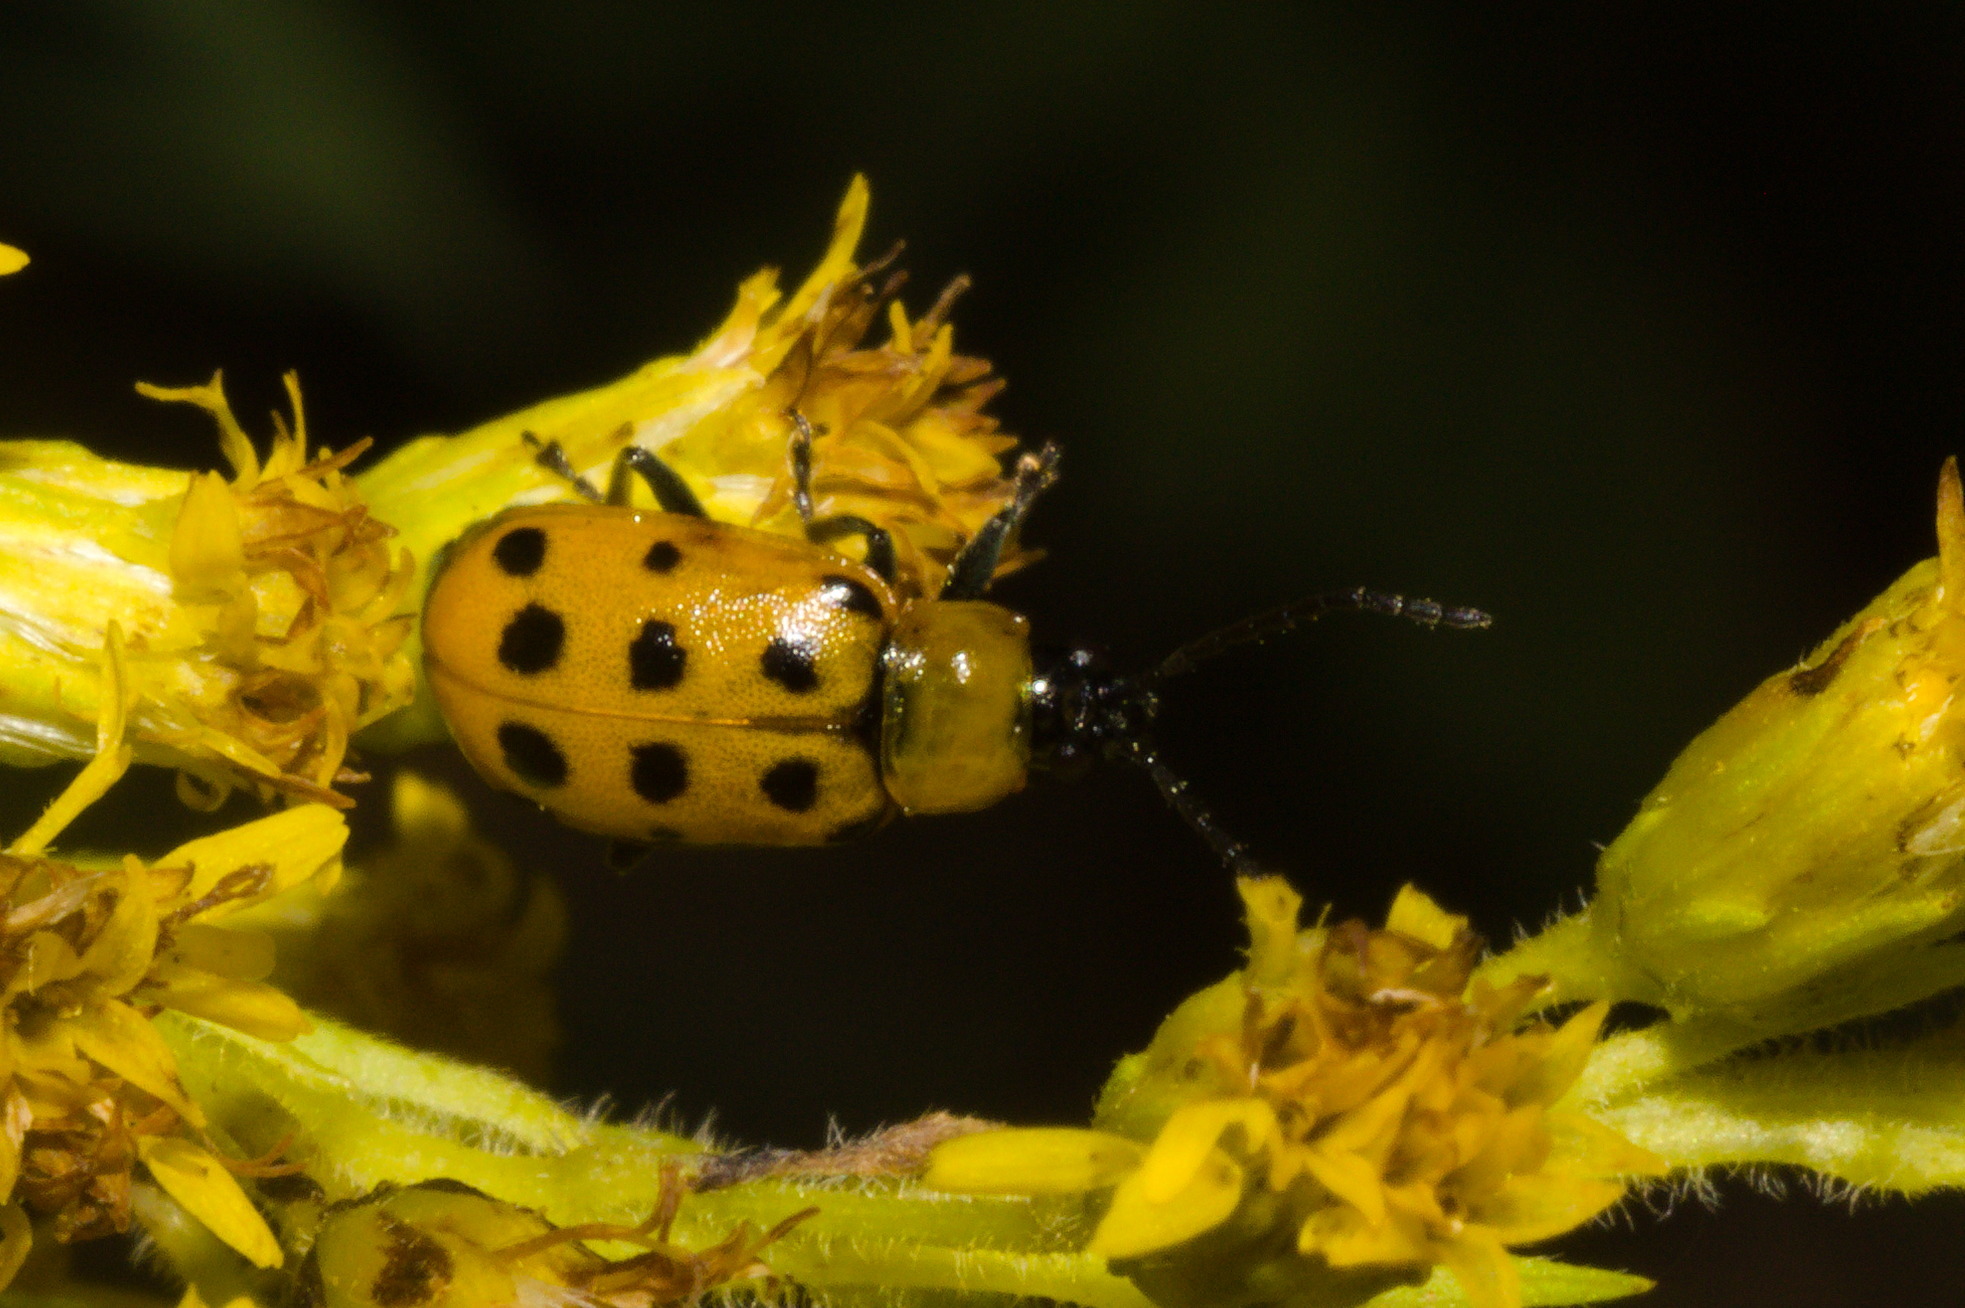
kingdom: Animalia
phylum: Arthropoda
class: Insecta
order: Coleoptera
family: Chrysomelidae
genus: Paranapiacaba
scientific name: Paranapiacaba
